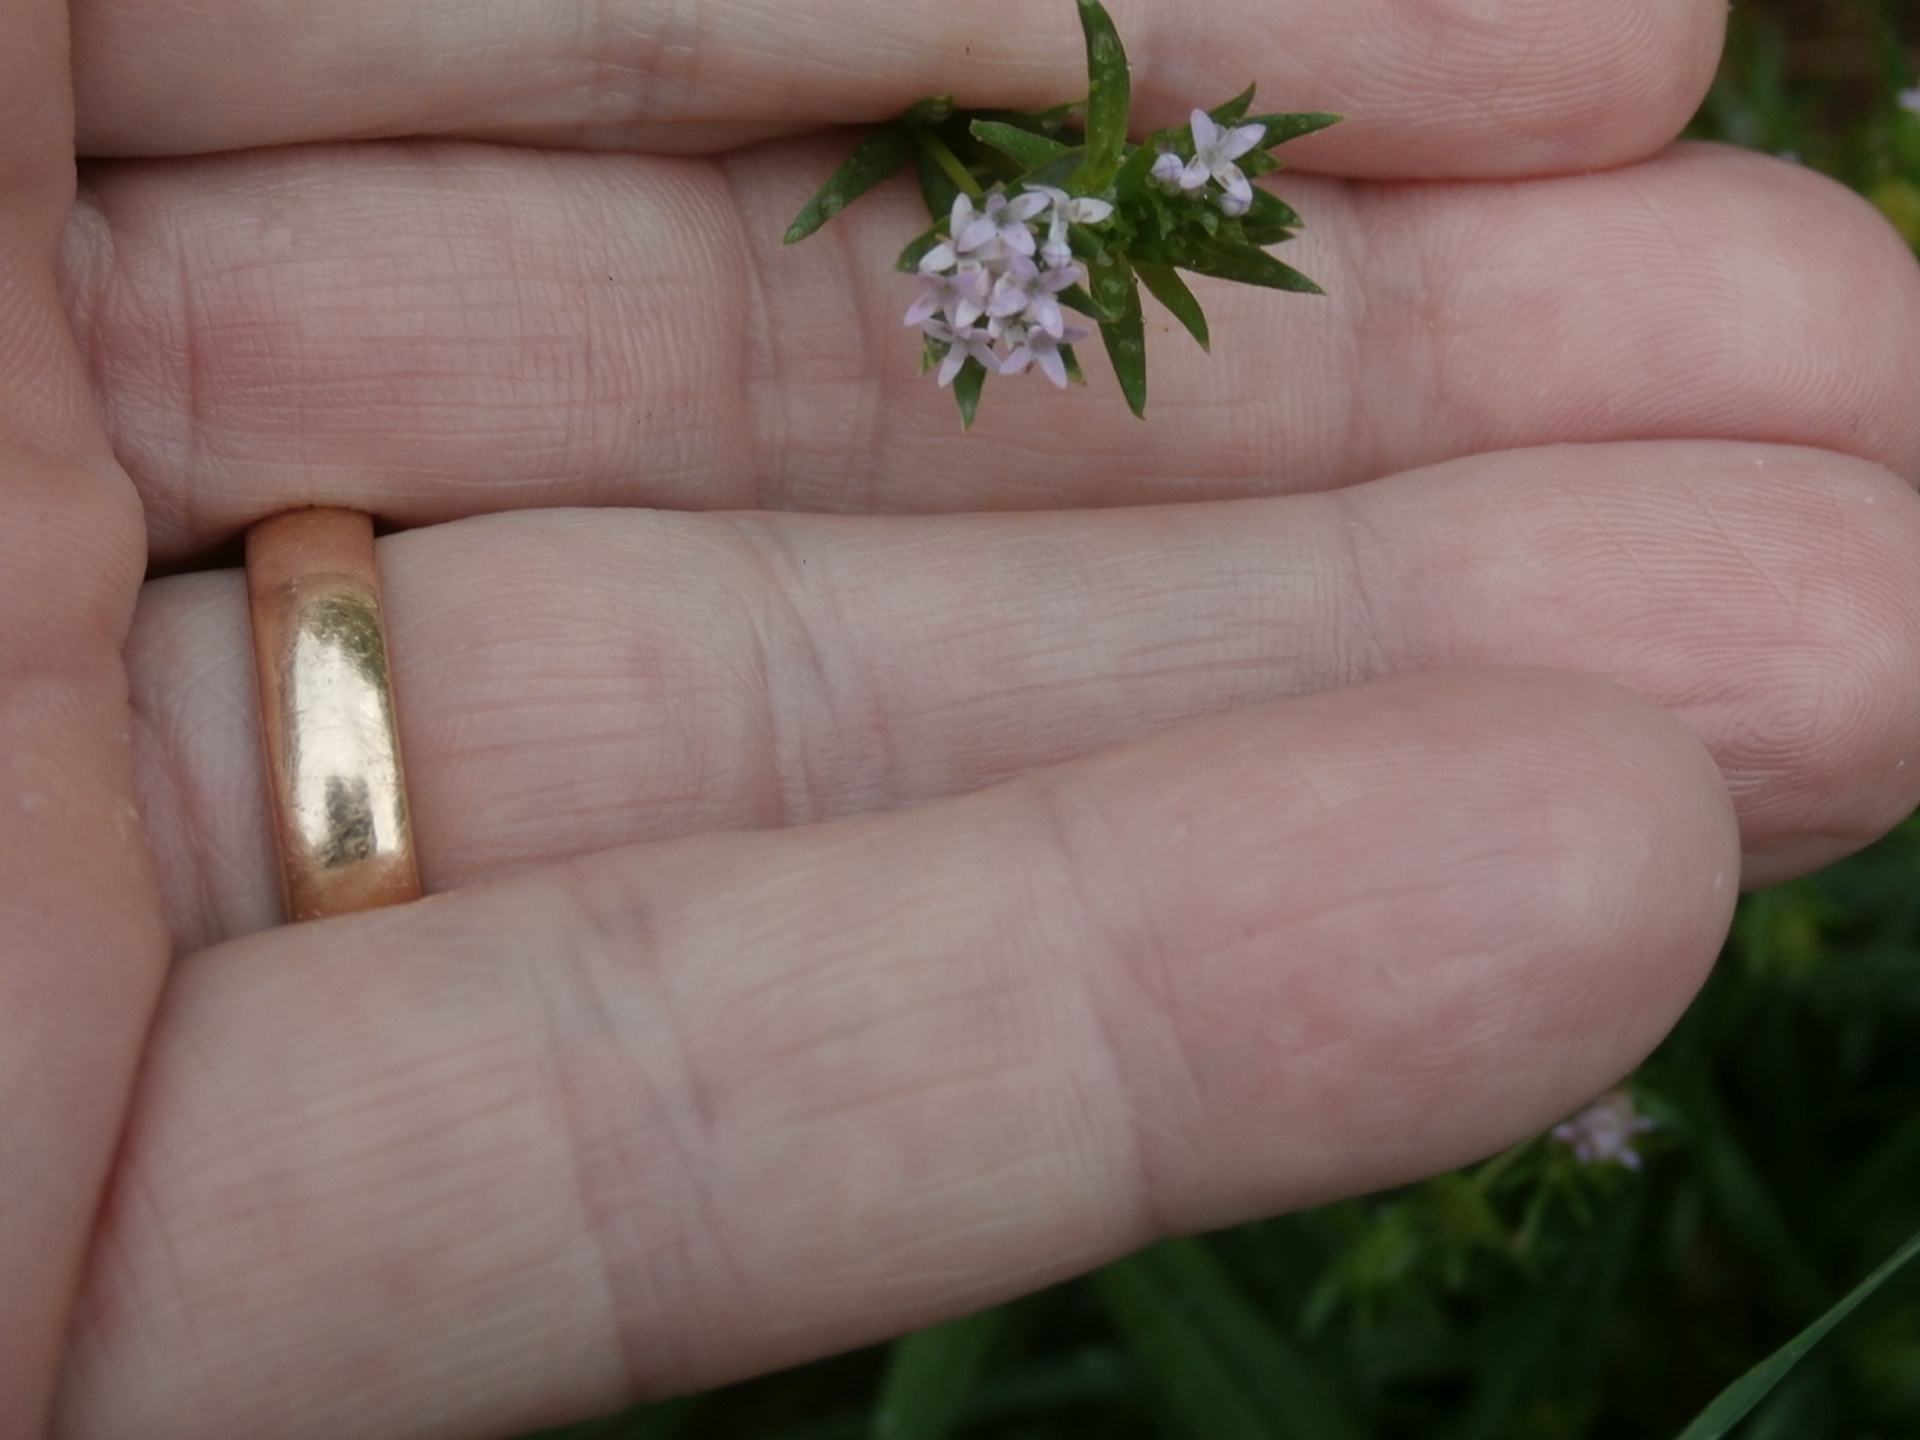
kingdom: Plantae
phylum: Tracheophyta
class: Magnoliopsida
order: Gentianales
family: Rubiaceae
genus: Sherardia
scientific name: Sherardia arvensis
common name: Field madder
